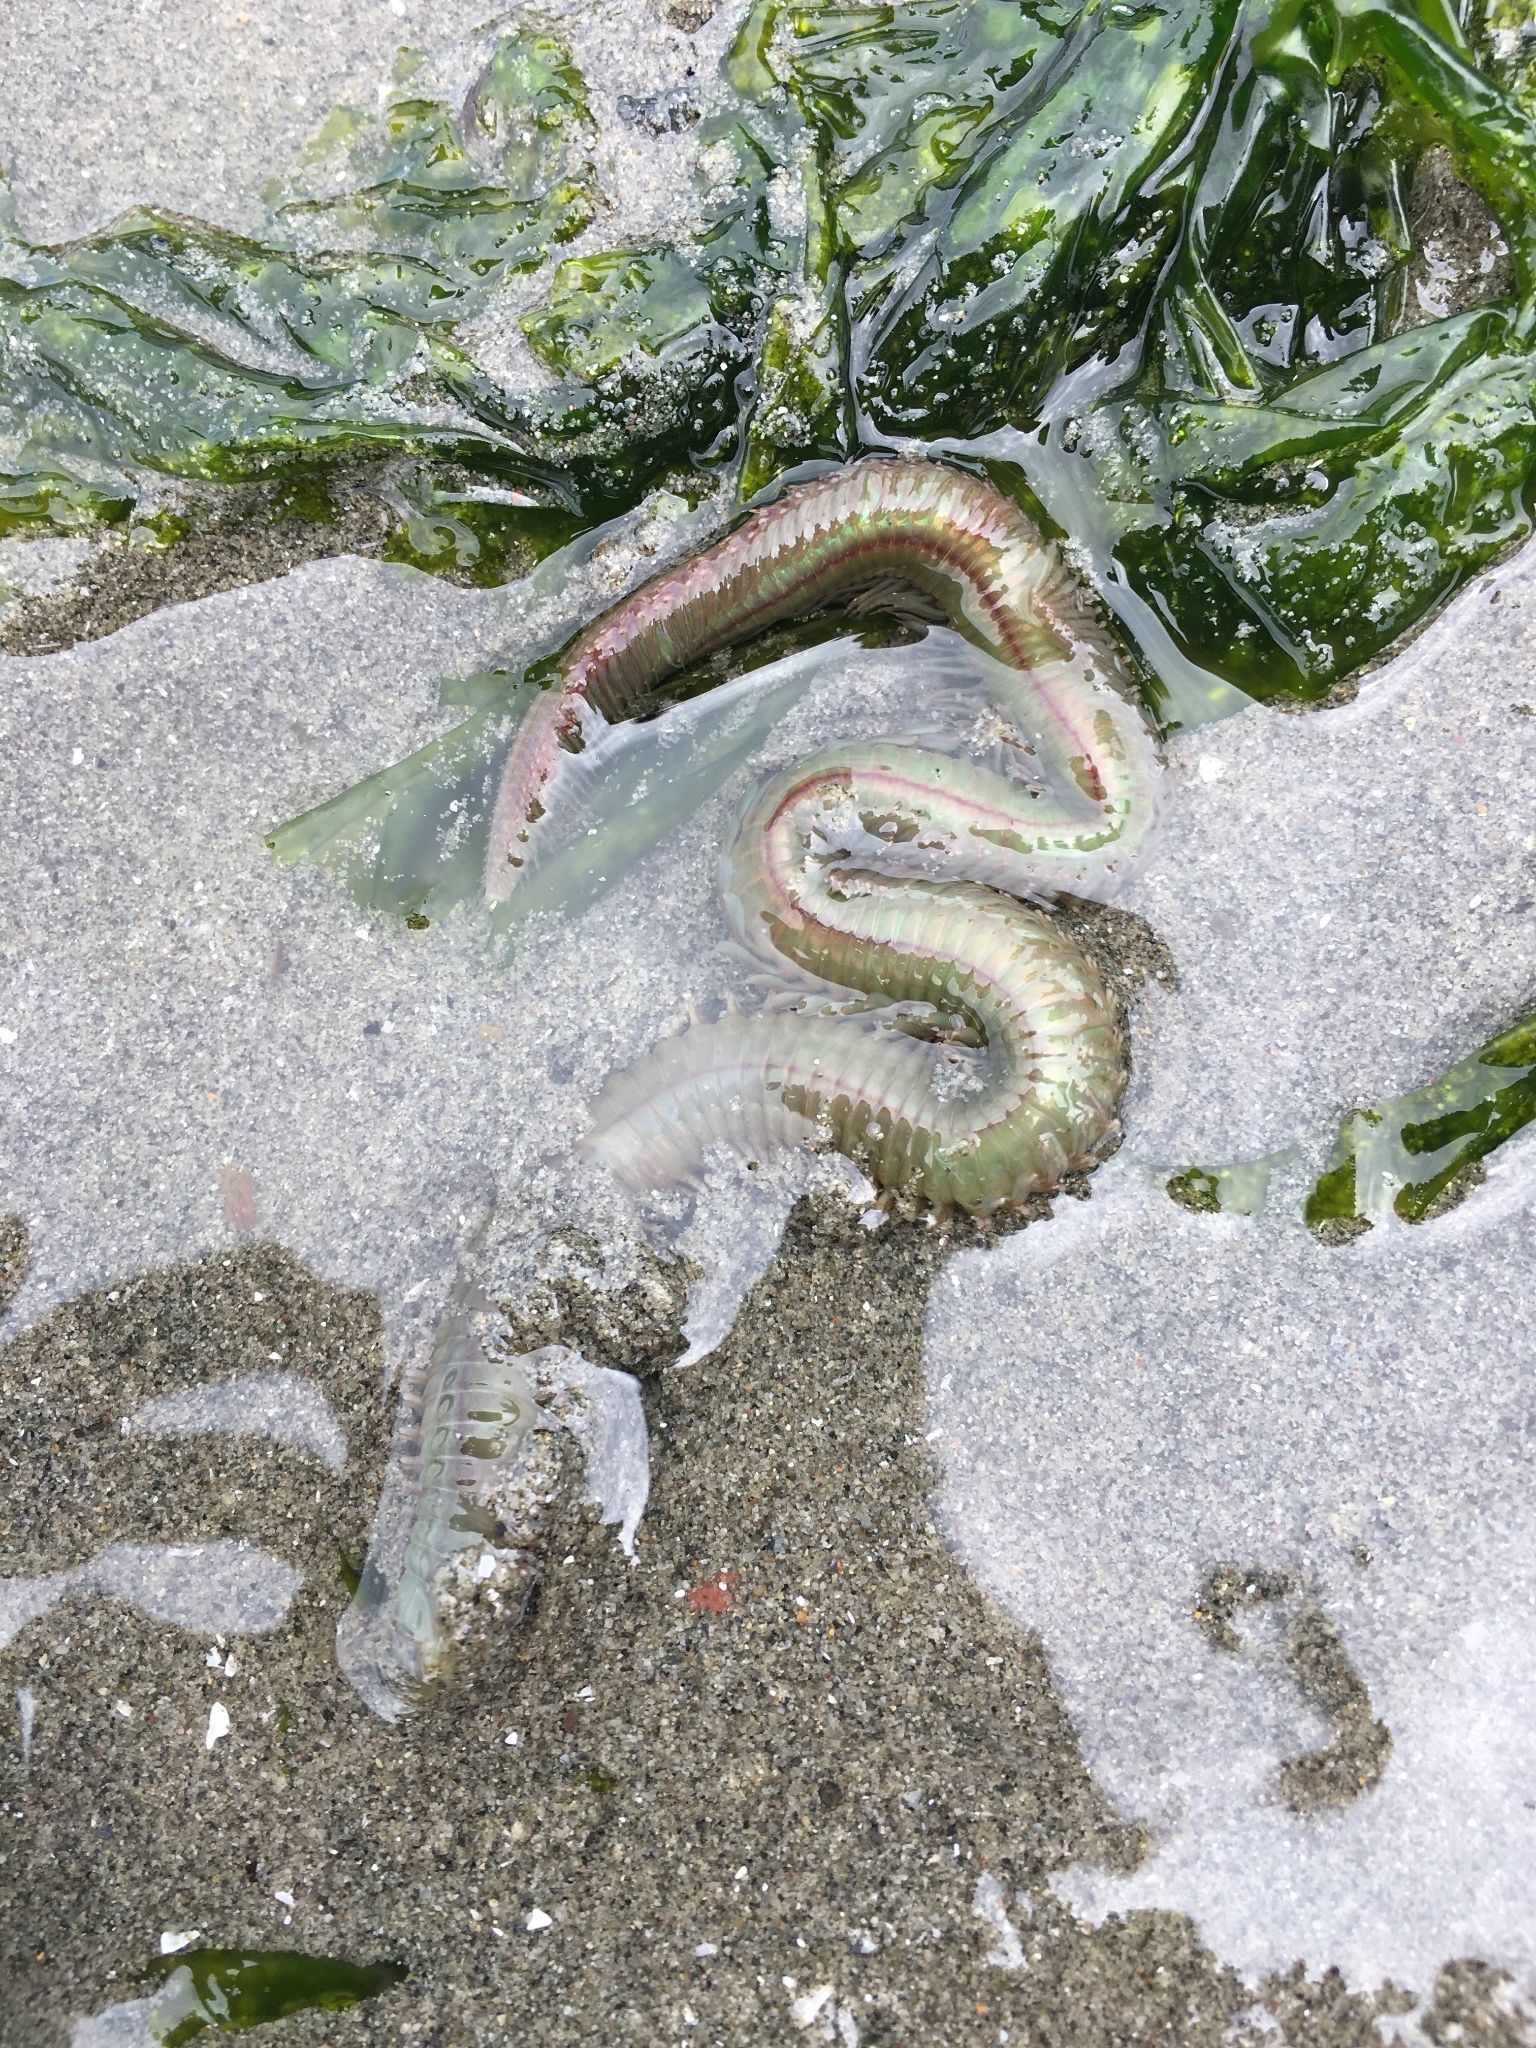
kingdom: Animalia
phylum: Annelida
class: Polychaeta
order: Phyllodocida
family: Nereididae
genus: Nereis
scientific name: Nereis vexillosa
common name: Mussel worm
